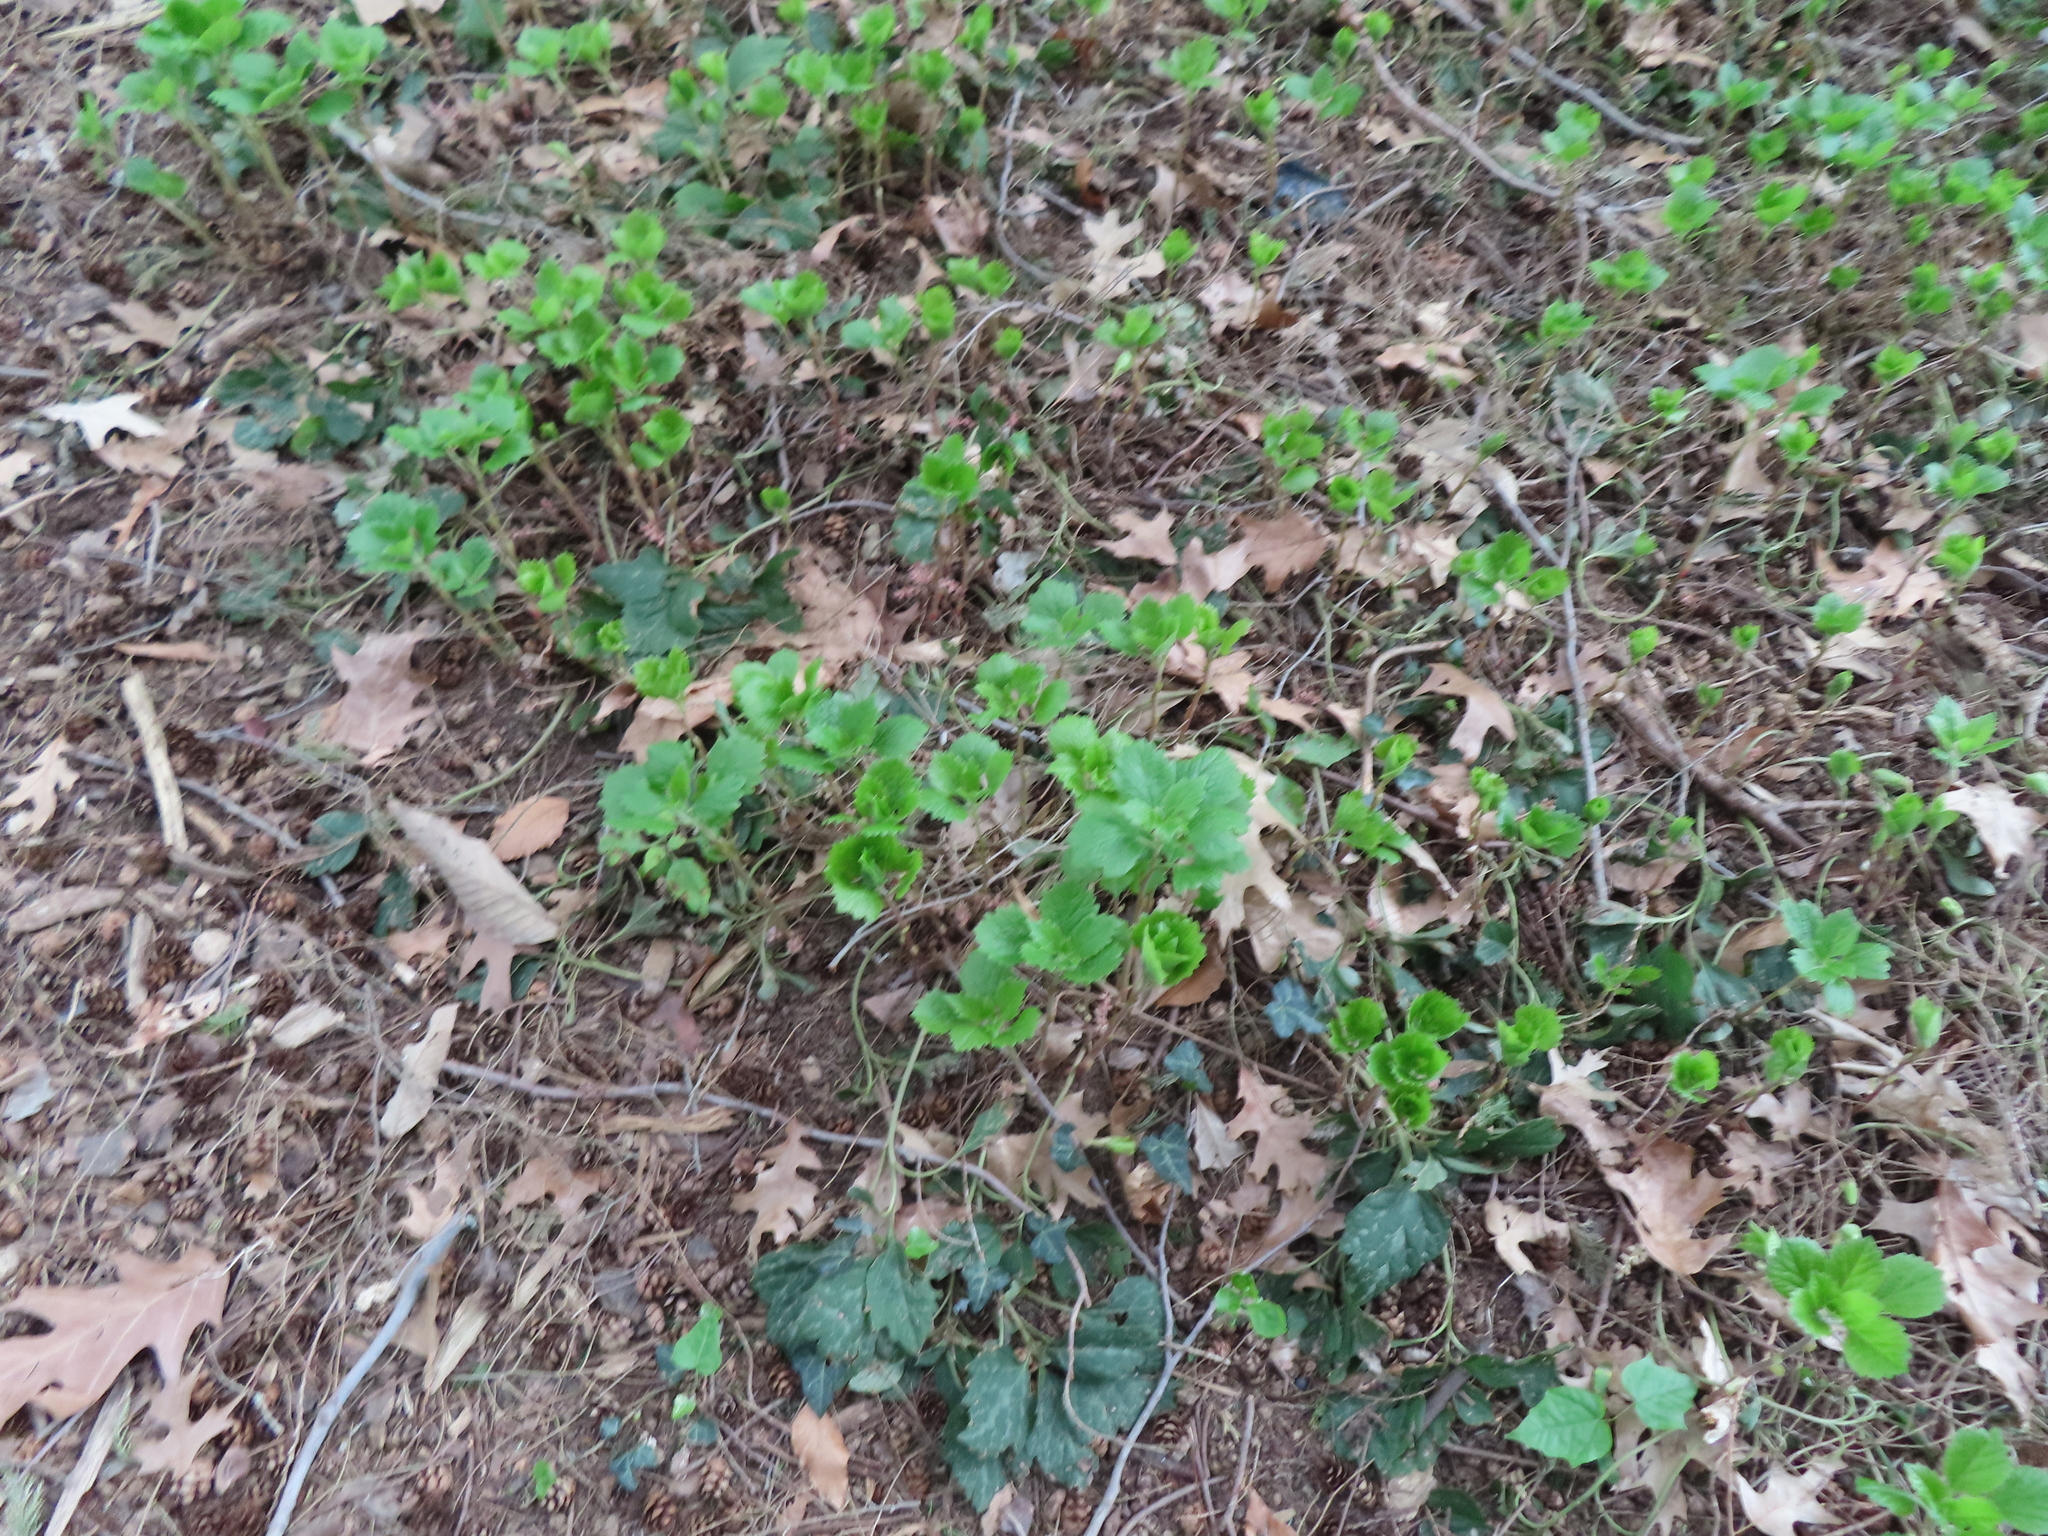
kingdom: Plantae
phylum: Tracheophyta
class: Magnoliopsida
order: Buxales
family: Buxaceae
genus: Pachysandra
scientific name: Pachysandra procumbens
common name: Mountain-spurge
